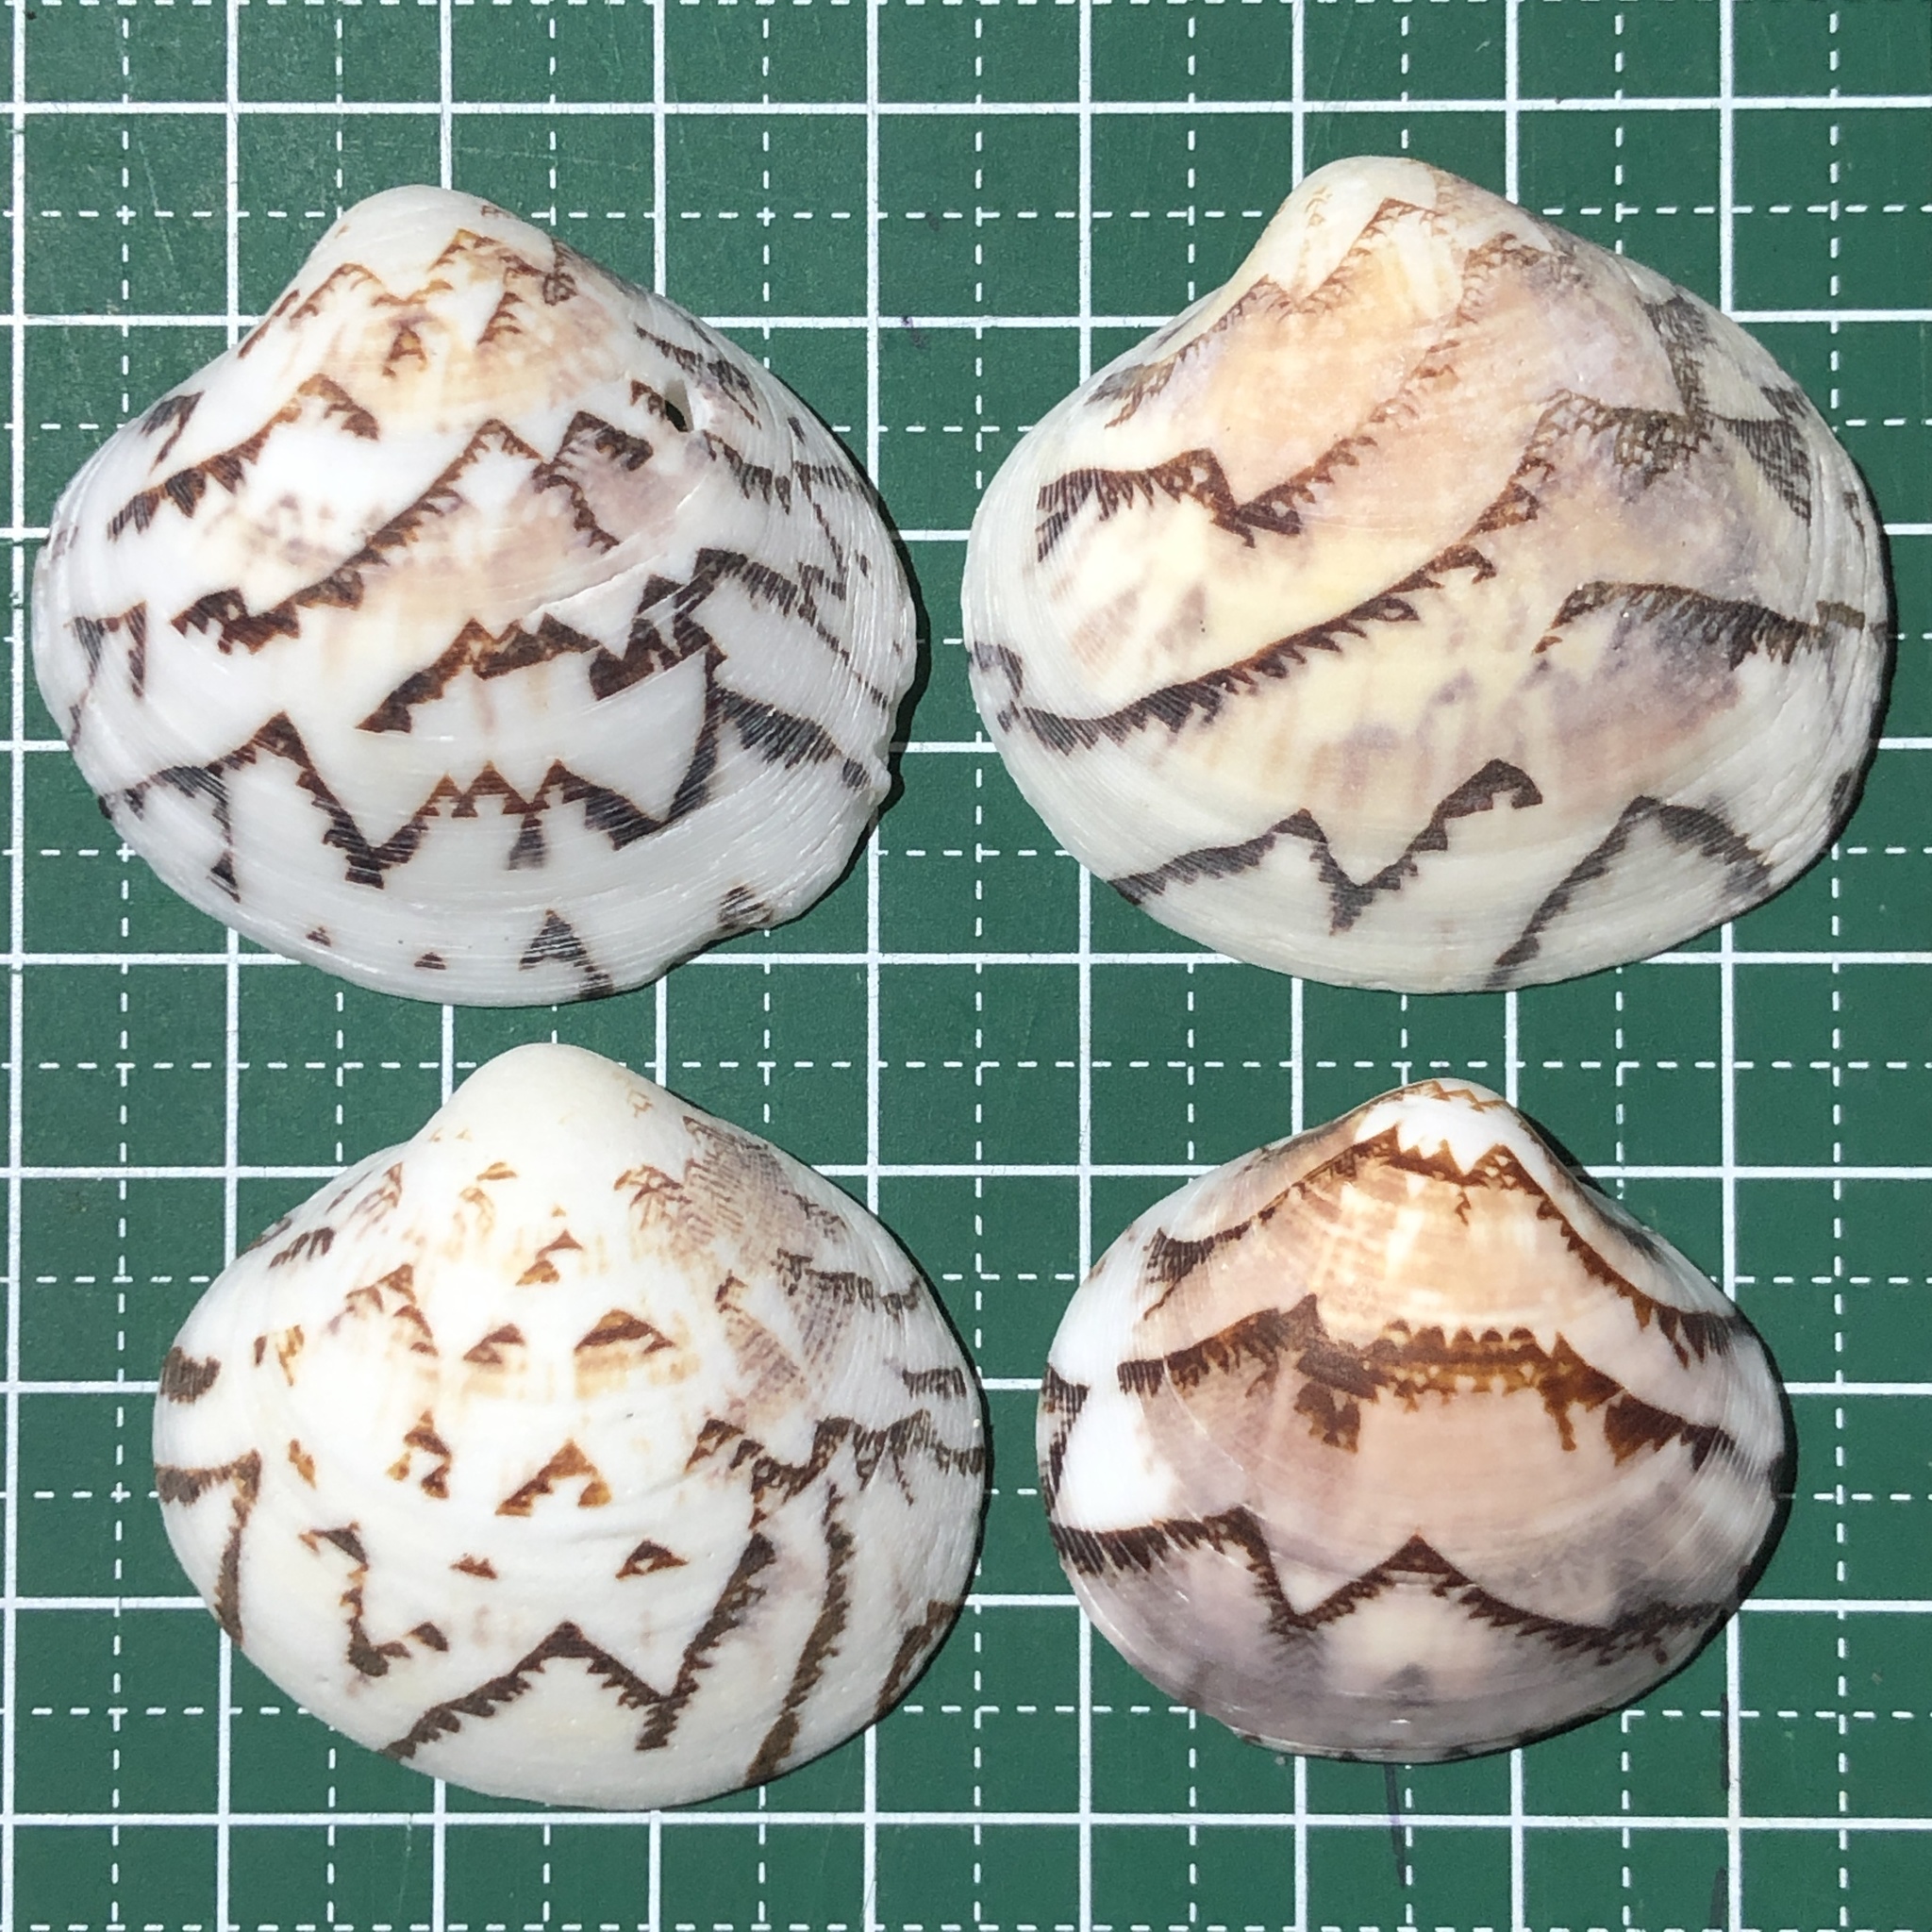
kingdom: Animalia
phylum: Mollusca
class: Bivalvia
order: Venerida
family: Veneridae
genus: Lioconcha
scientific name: Lioconcha castrensis
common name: Camp pitar-venus
